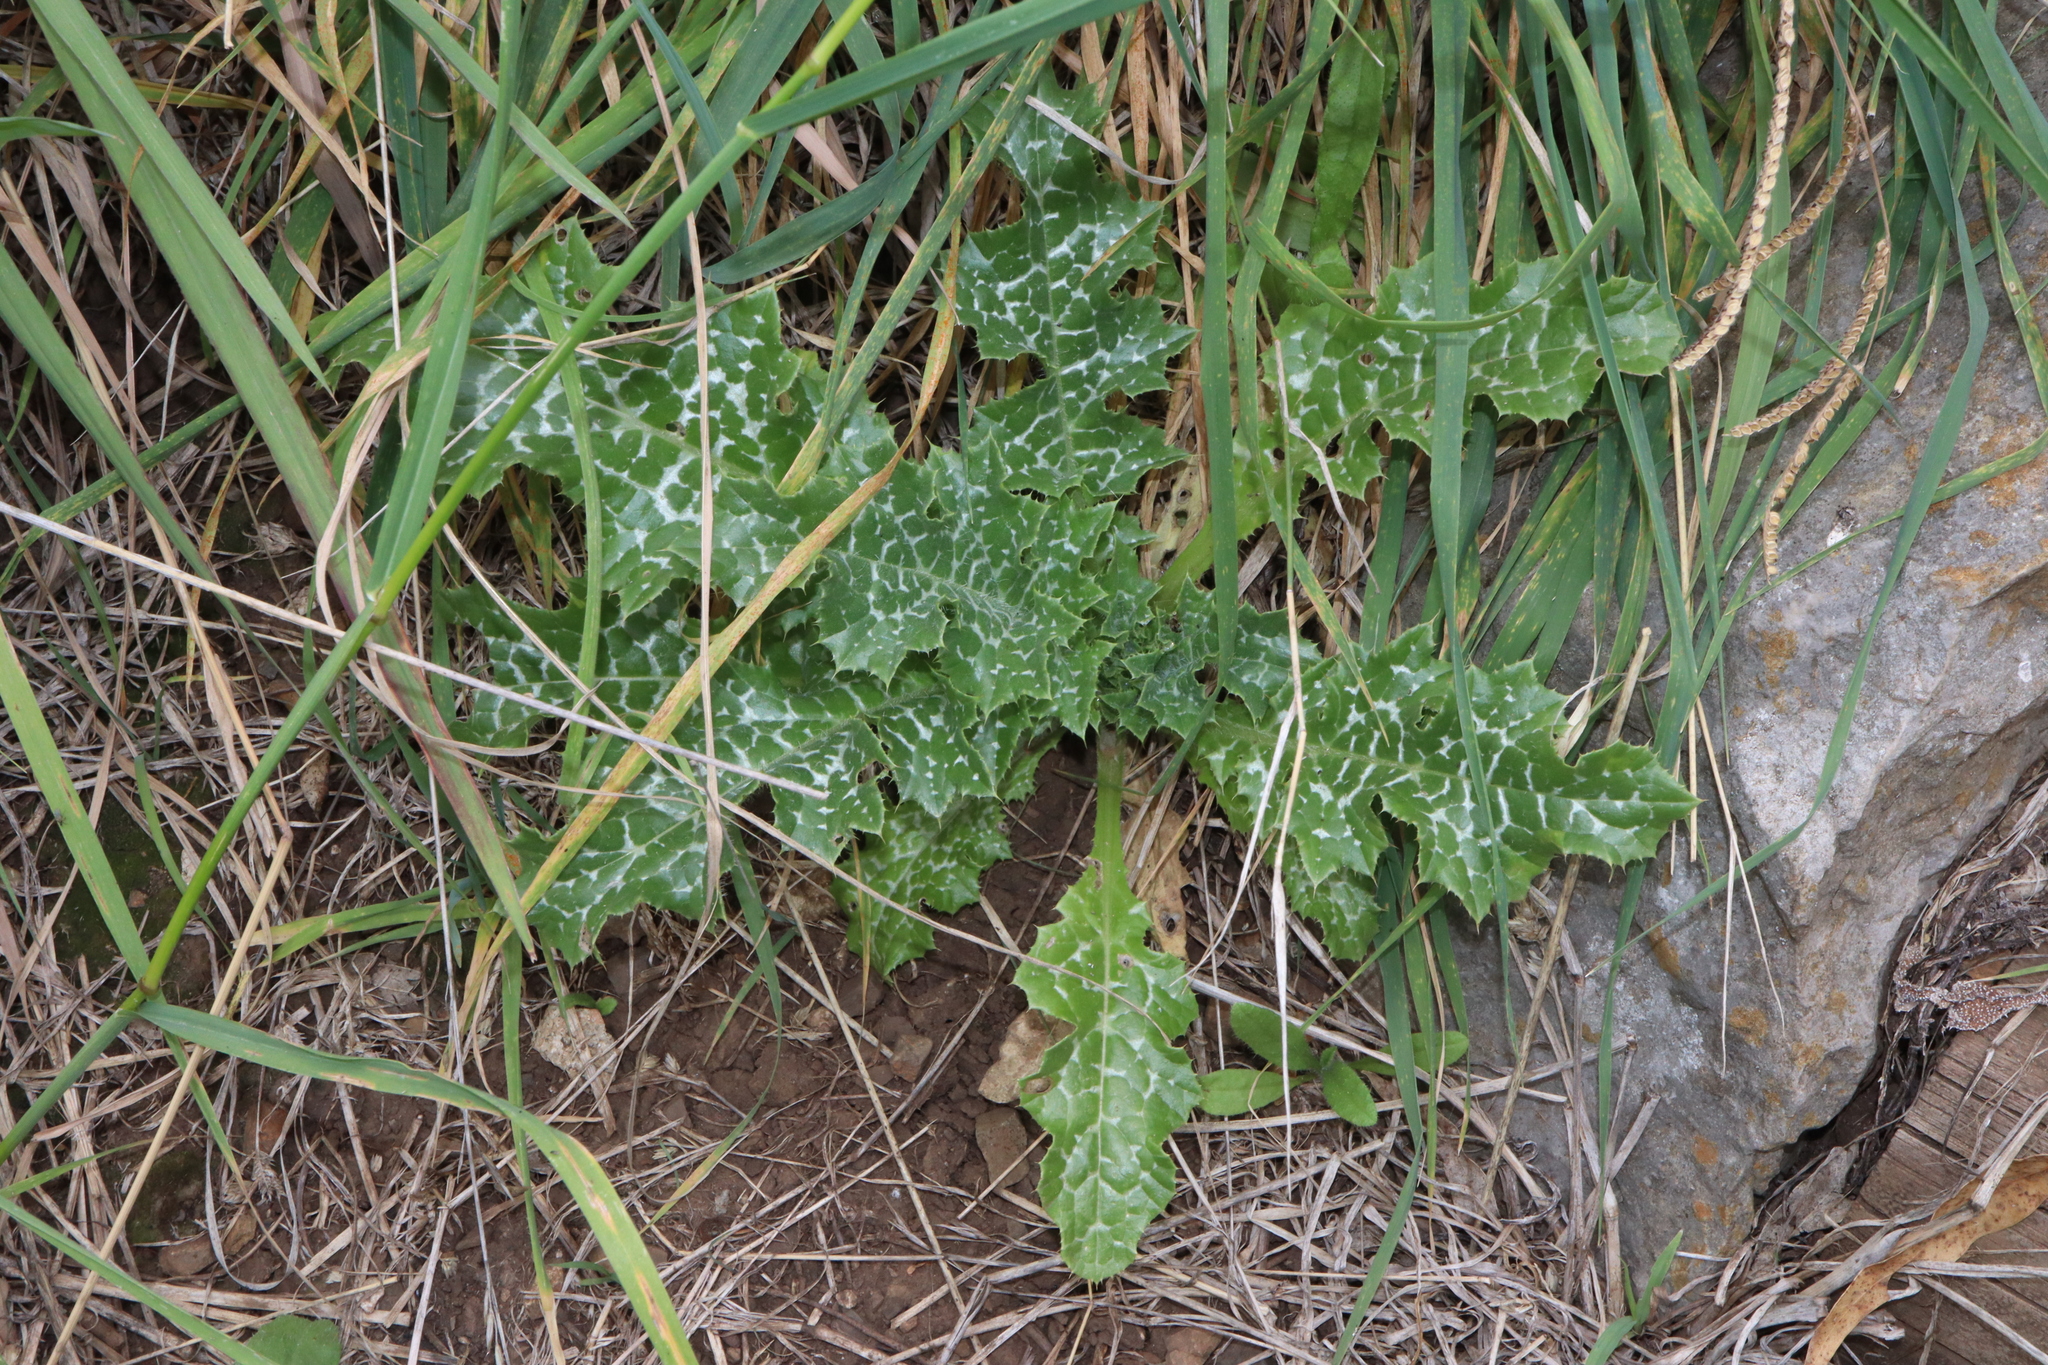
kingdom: Plantae
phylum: Tracheophyta
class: Magnoliopsida
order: Asterales
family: Asteraceae
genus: Silybum
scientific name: Silybum marianum
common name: Milk thistle
